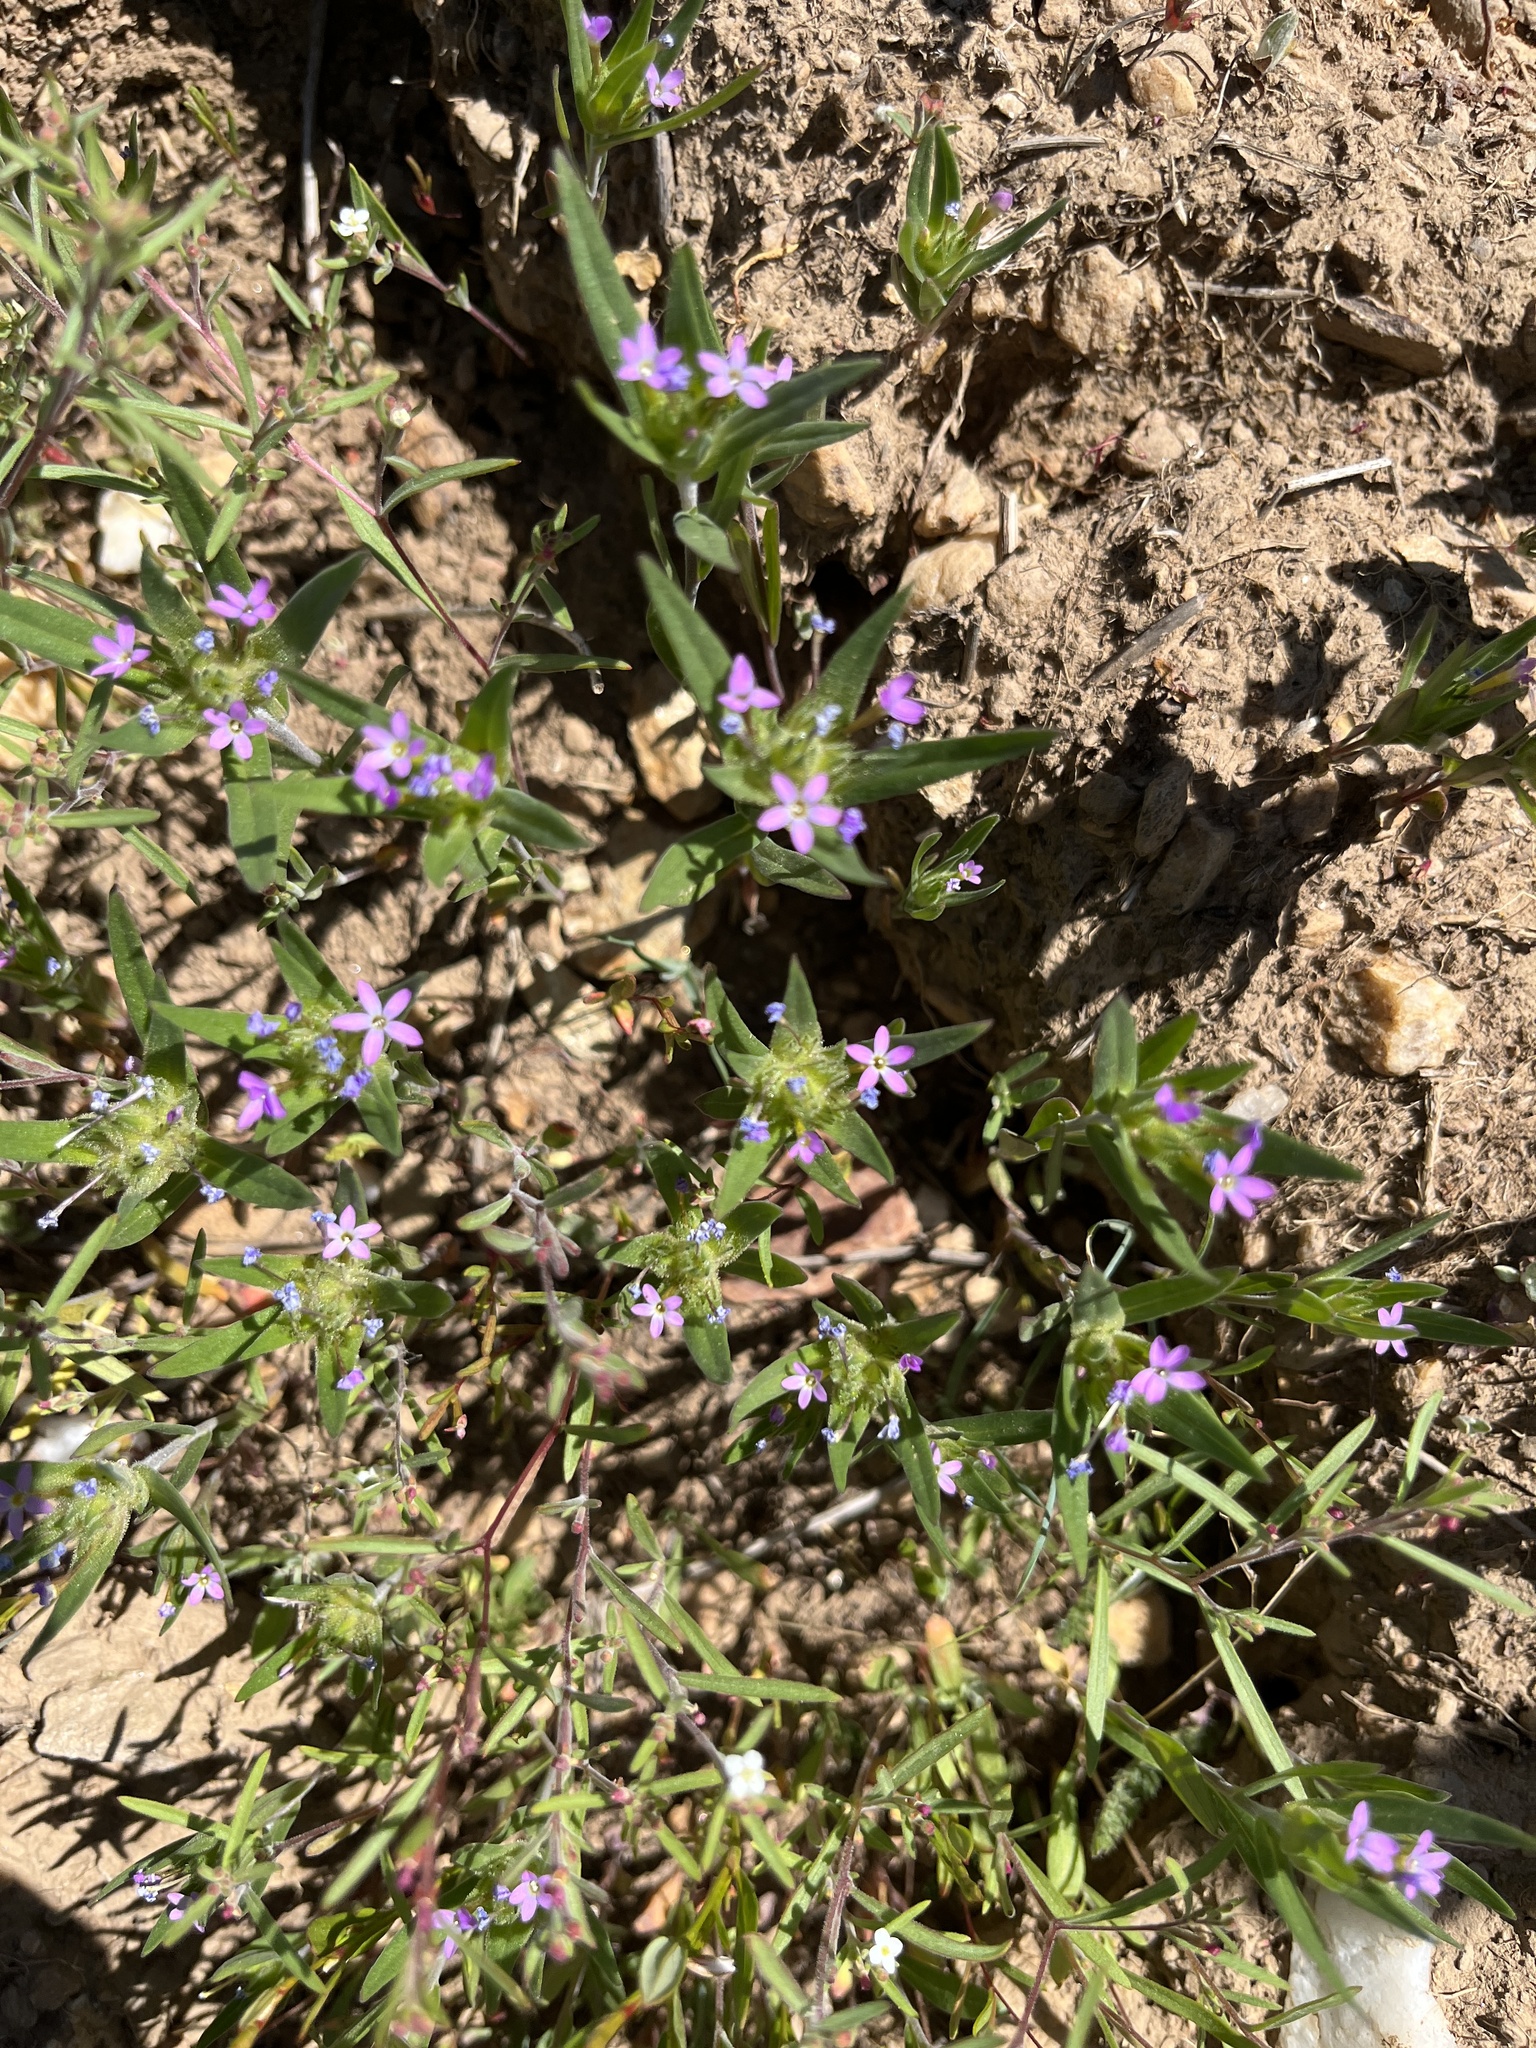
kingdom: Plantae
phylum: Tracheophyta
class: Magnoliopsida
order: Ericales
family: Polemoniaceae
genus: Collomia
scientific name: Collomia linearis
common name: Tiny trumpet
